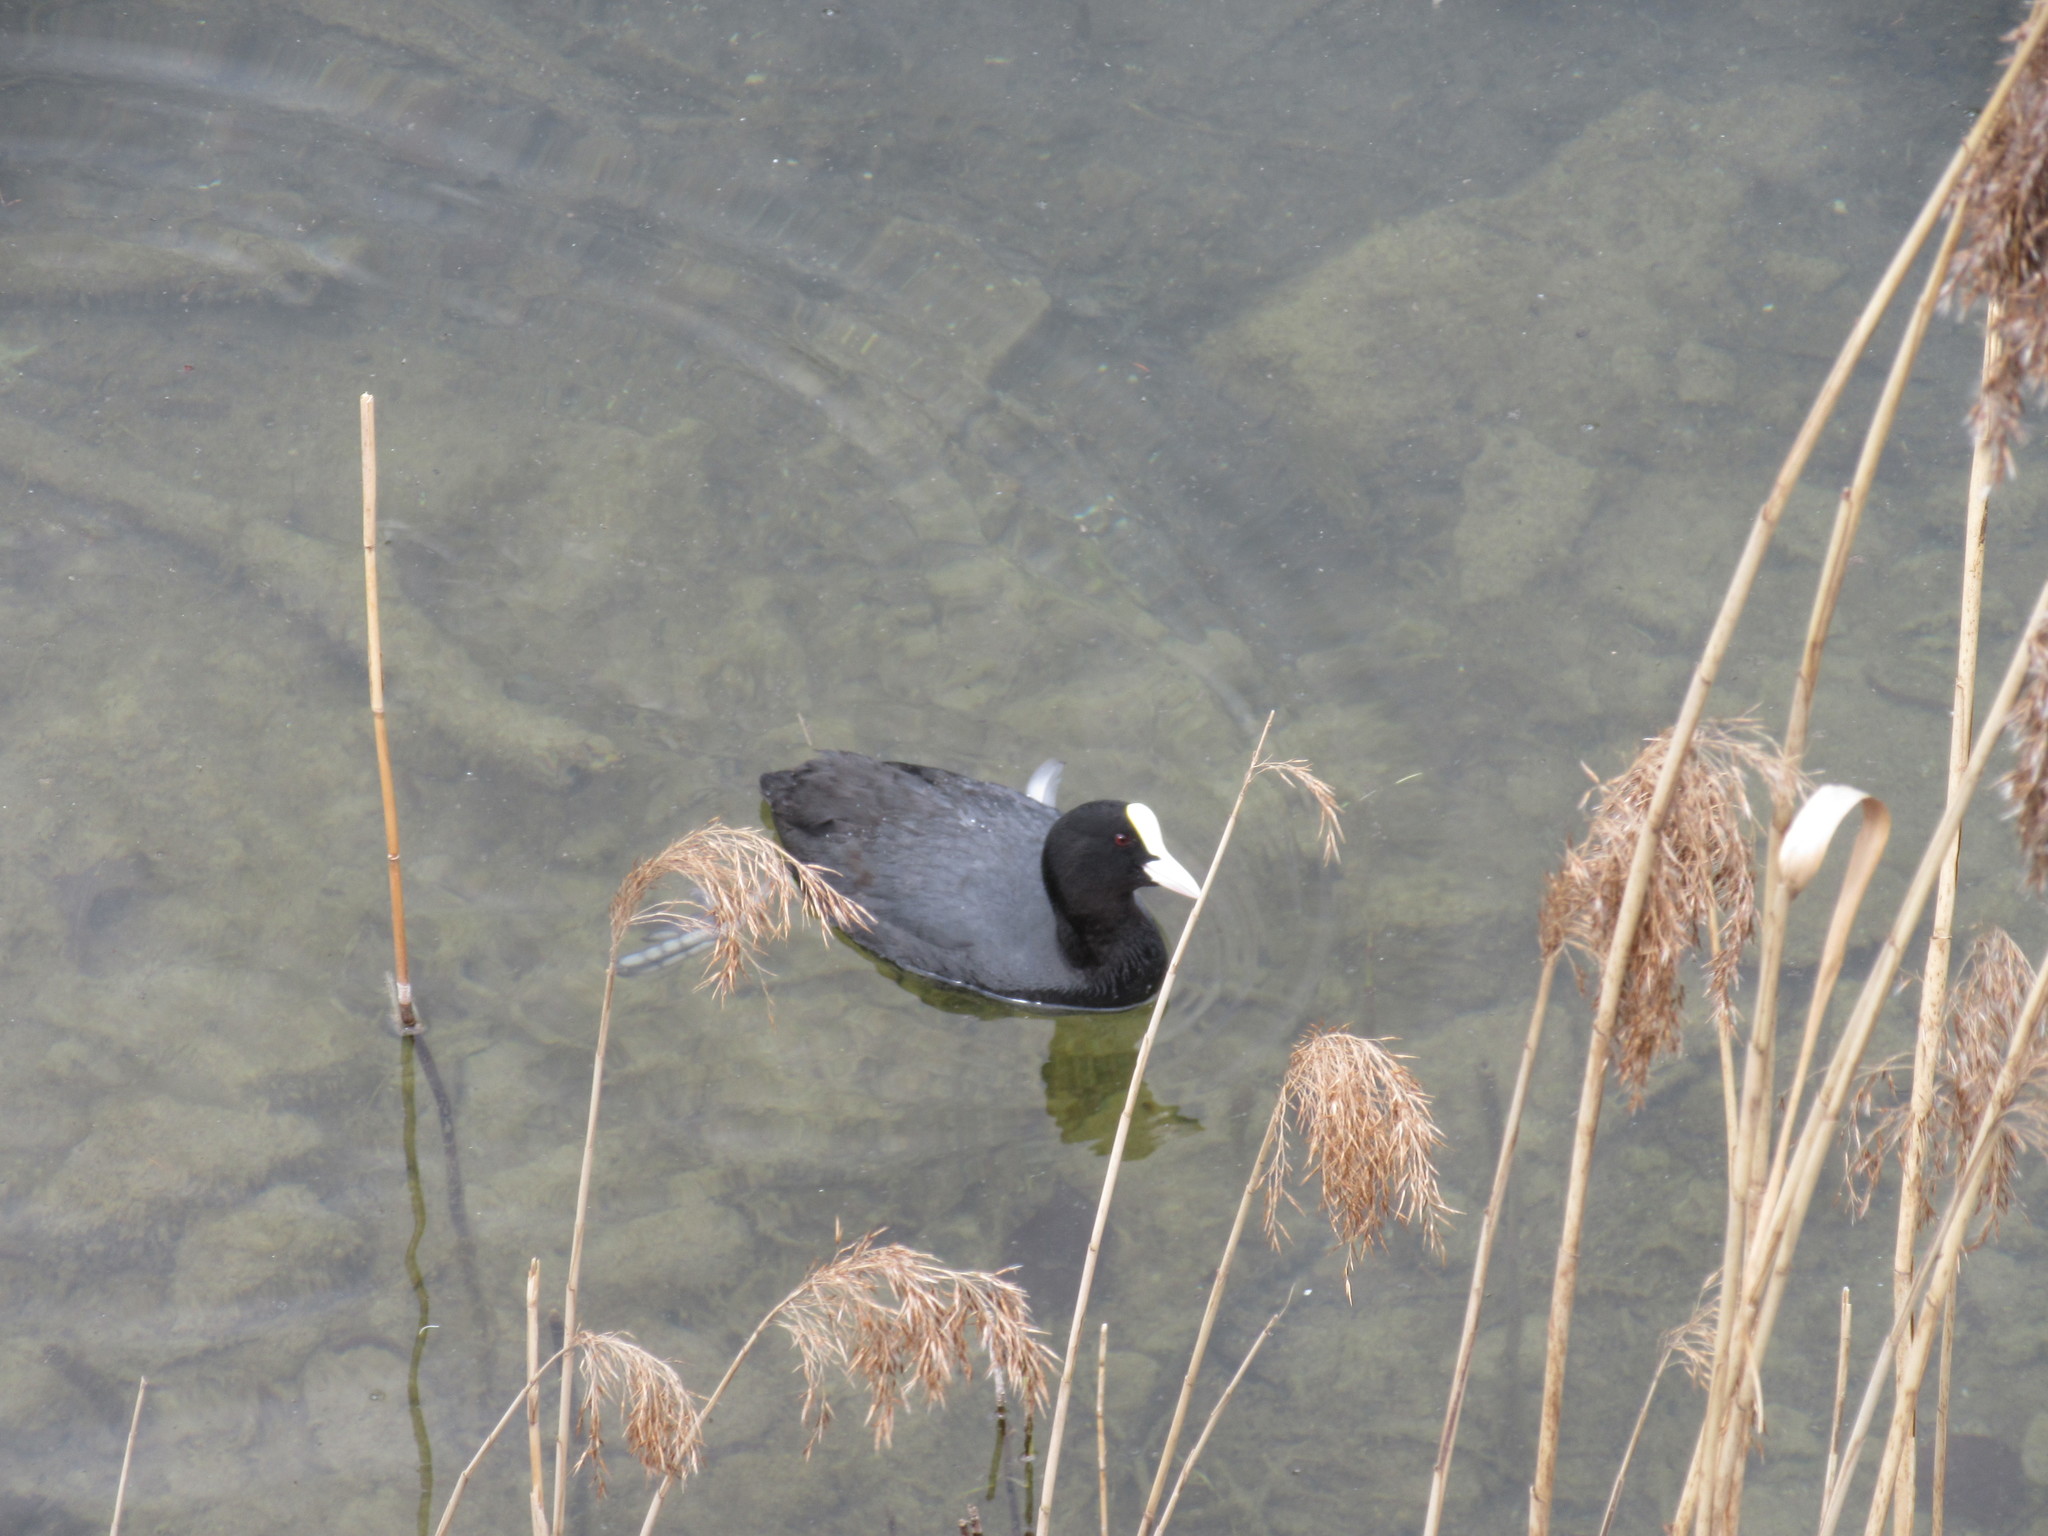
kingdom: Animalia
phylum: Chordata
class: Aves
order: Gruiformes
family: Rallidae
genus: Fulica
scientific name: Fulica atra
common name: Eurasian coot
